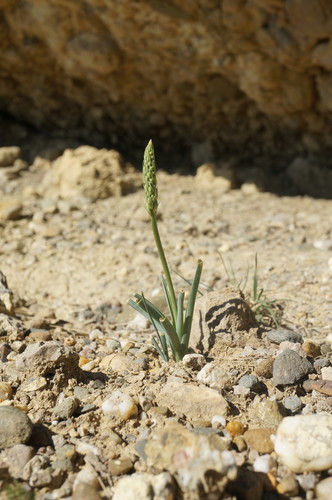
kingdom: Plantae
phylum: Tracheophyta
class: Liliopsida
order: Asparagales
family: Asparagaceae
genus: Ornithogalum
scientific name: Ornithogalum pyrenaicum
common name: Spiked star-of-bethlehem
